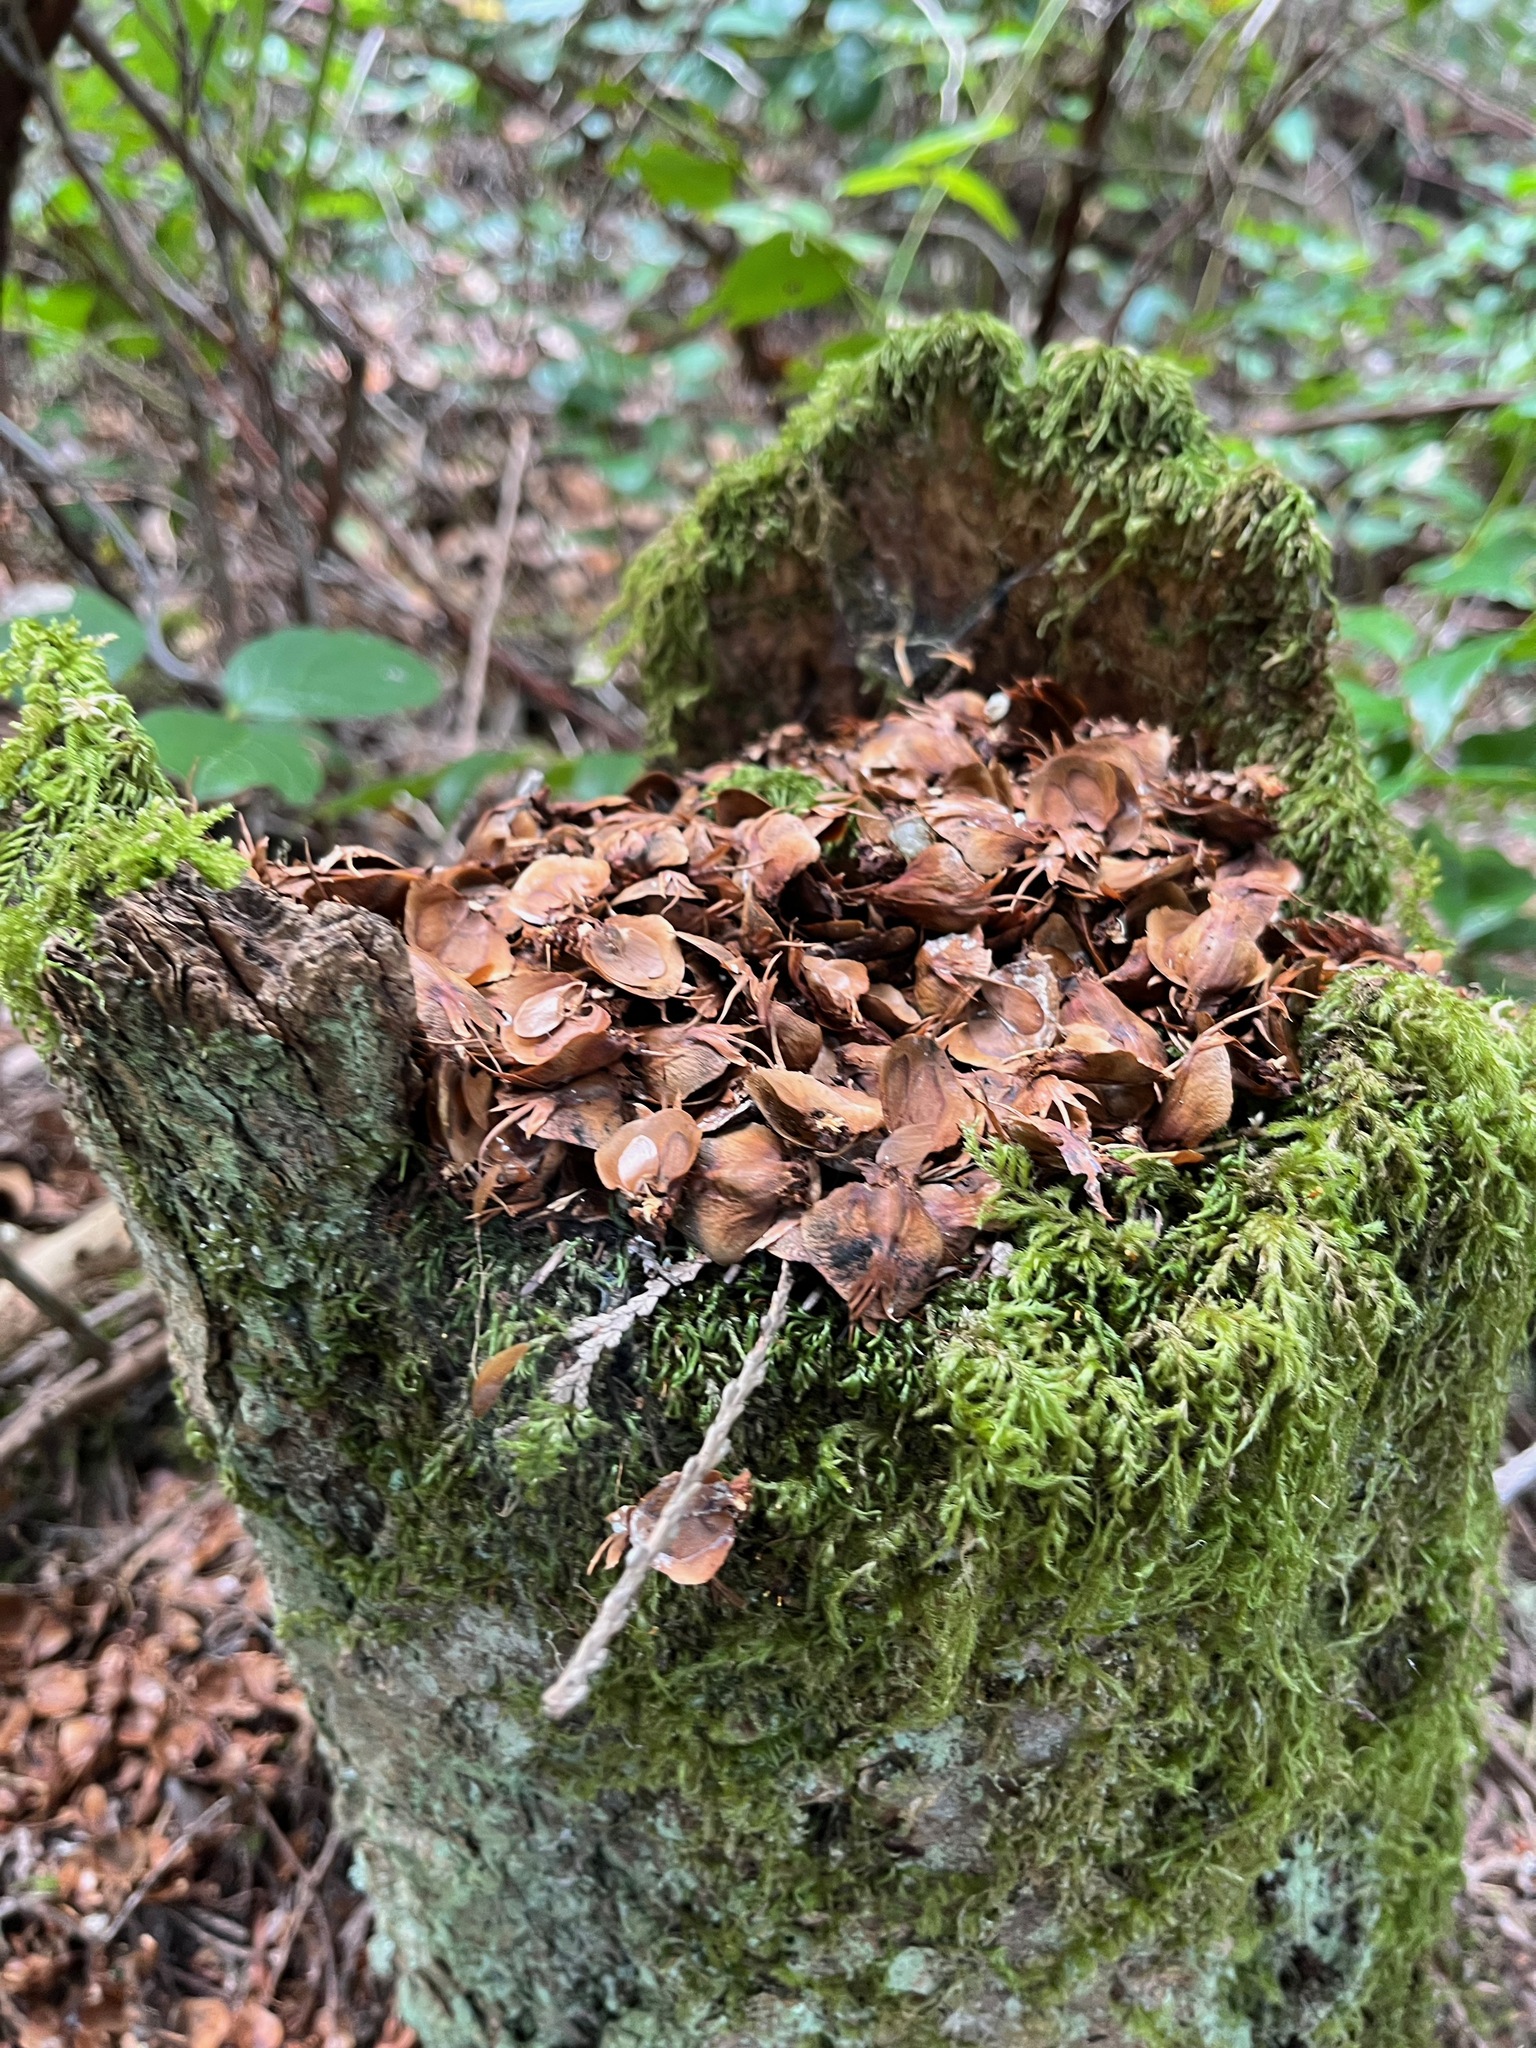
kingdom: Animalia
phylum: Chordata
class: Mammalia
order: Rodentia
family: Sciuridae
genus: Tamiasciurus
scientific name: Tamiasciurus hudsonicus
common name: Red squirrel
